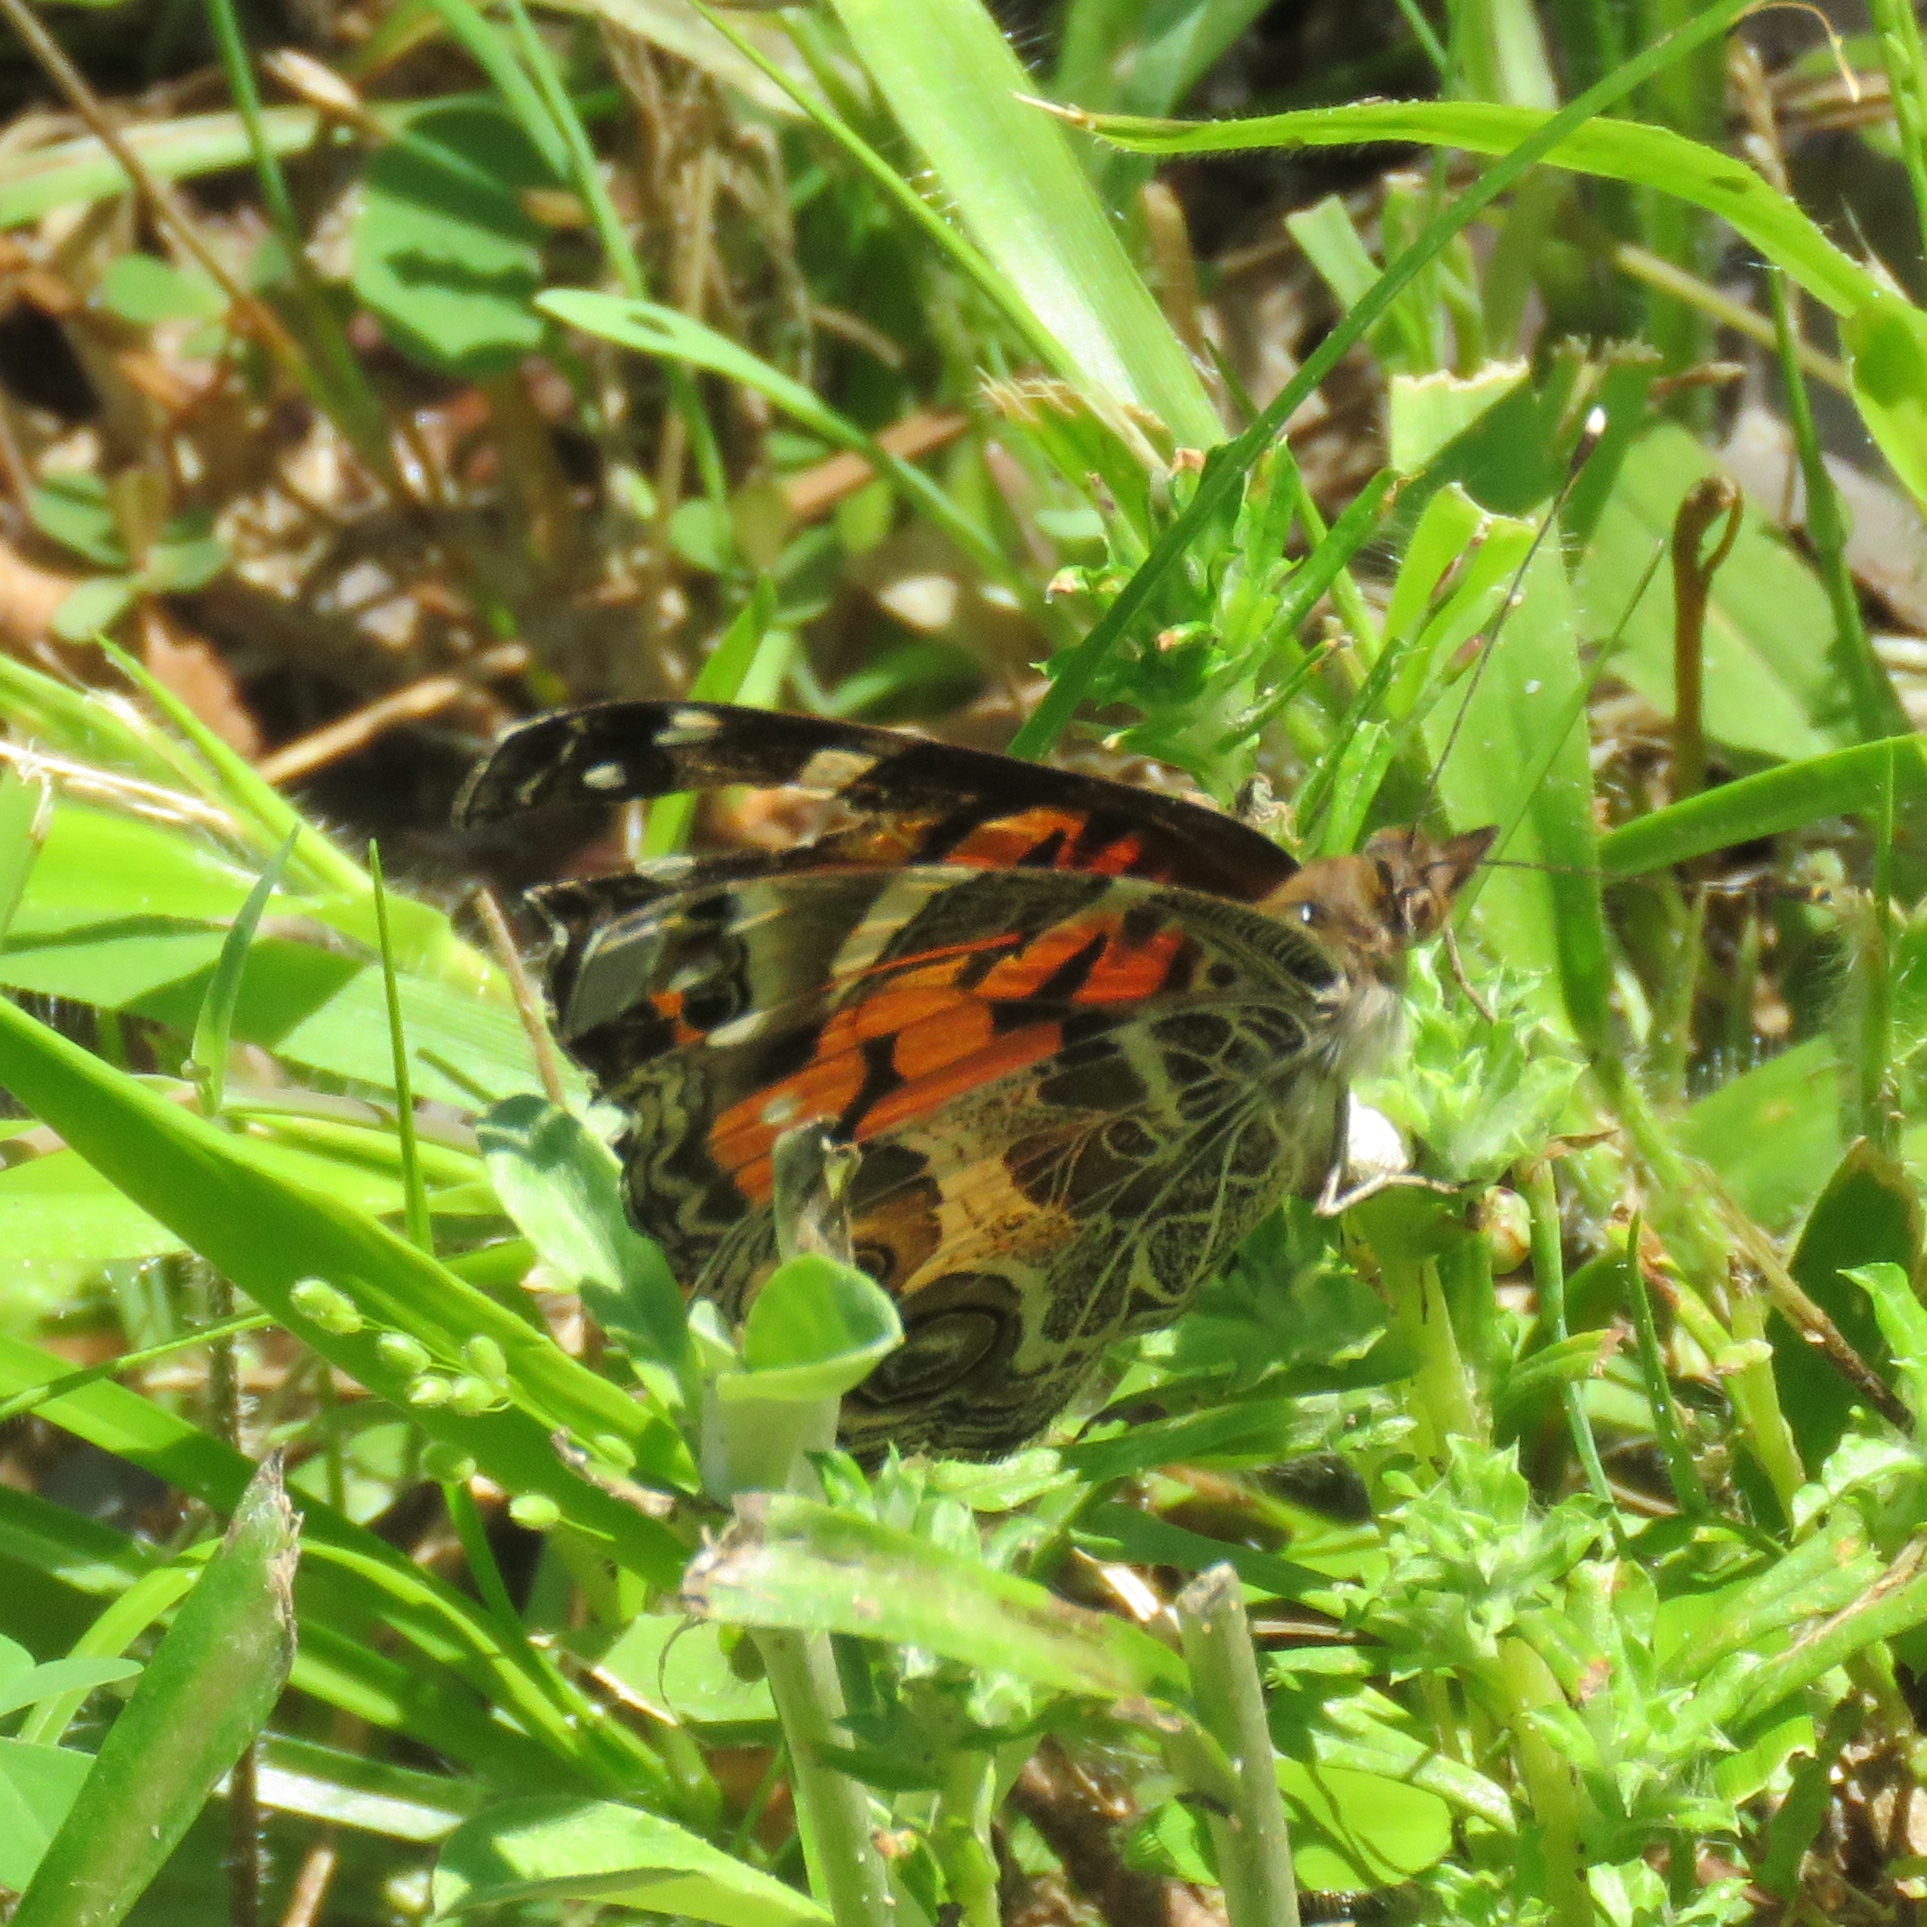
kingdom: Animalia
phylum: Arthropoda
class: Insecta
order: Lepidoptera
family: Nymphalidae
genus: Vanessa
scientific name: Vanessa virginiensis
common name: American lady
